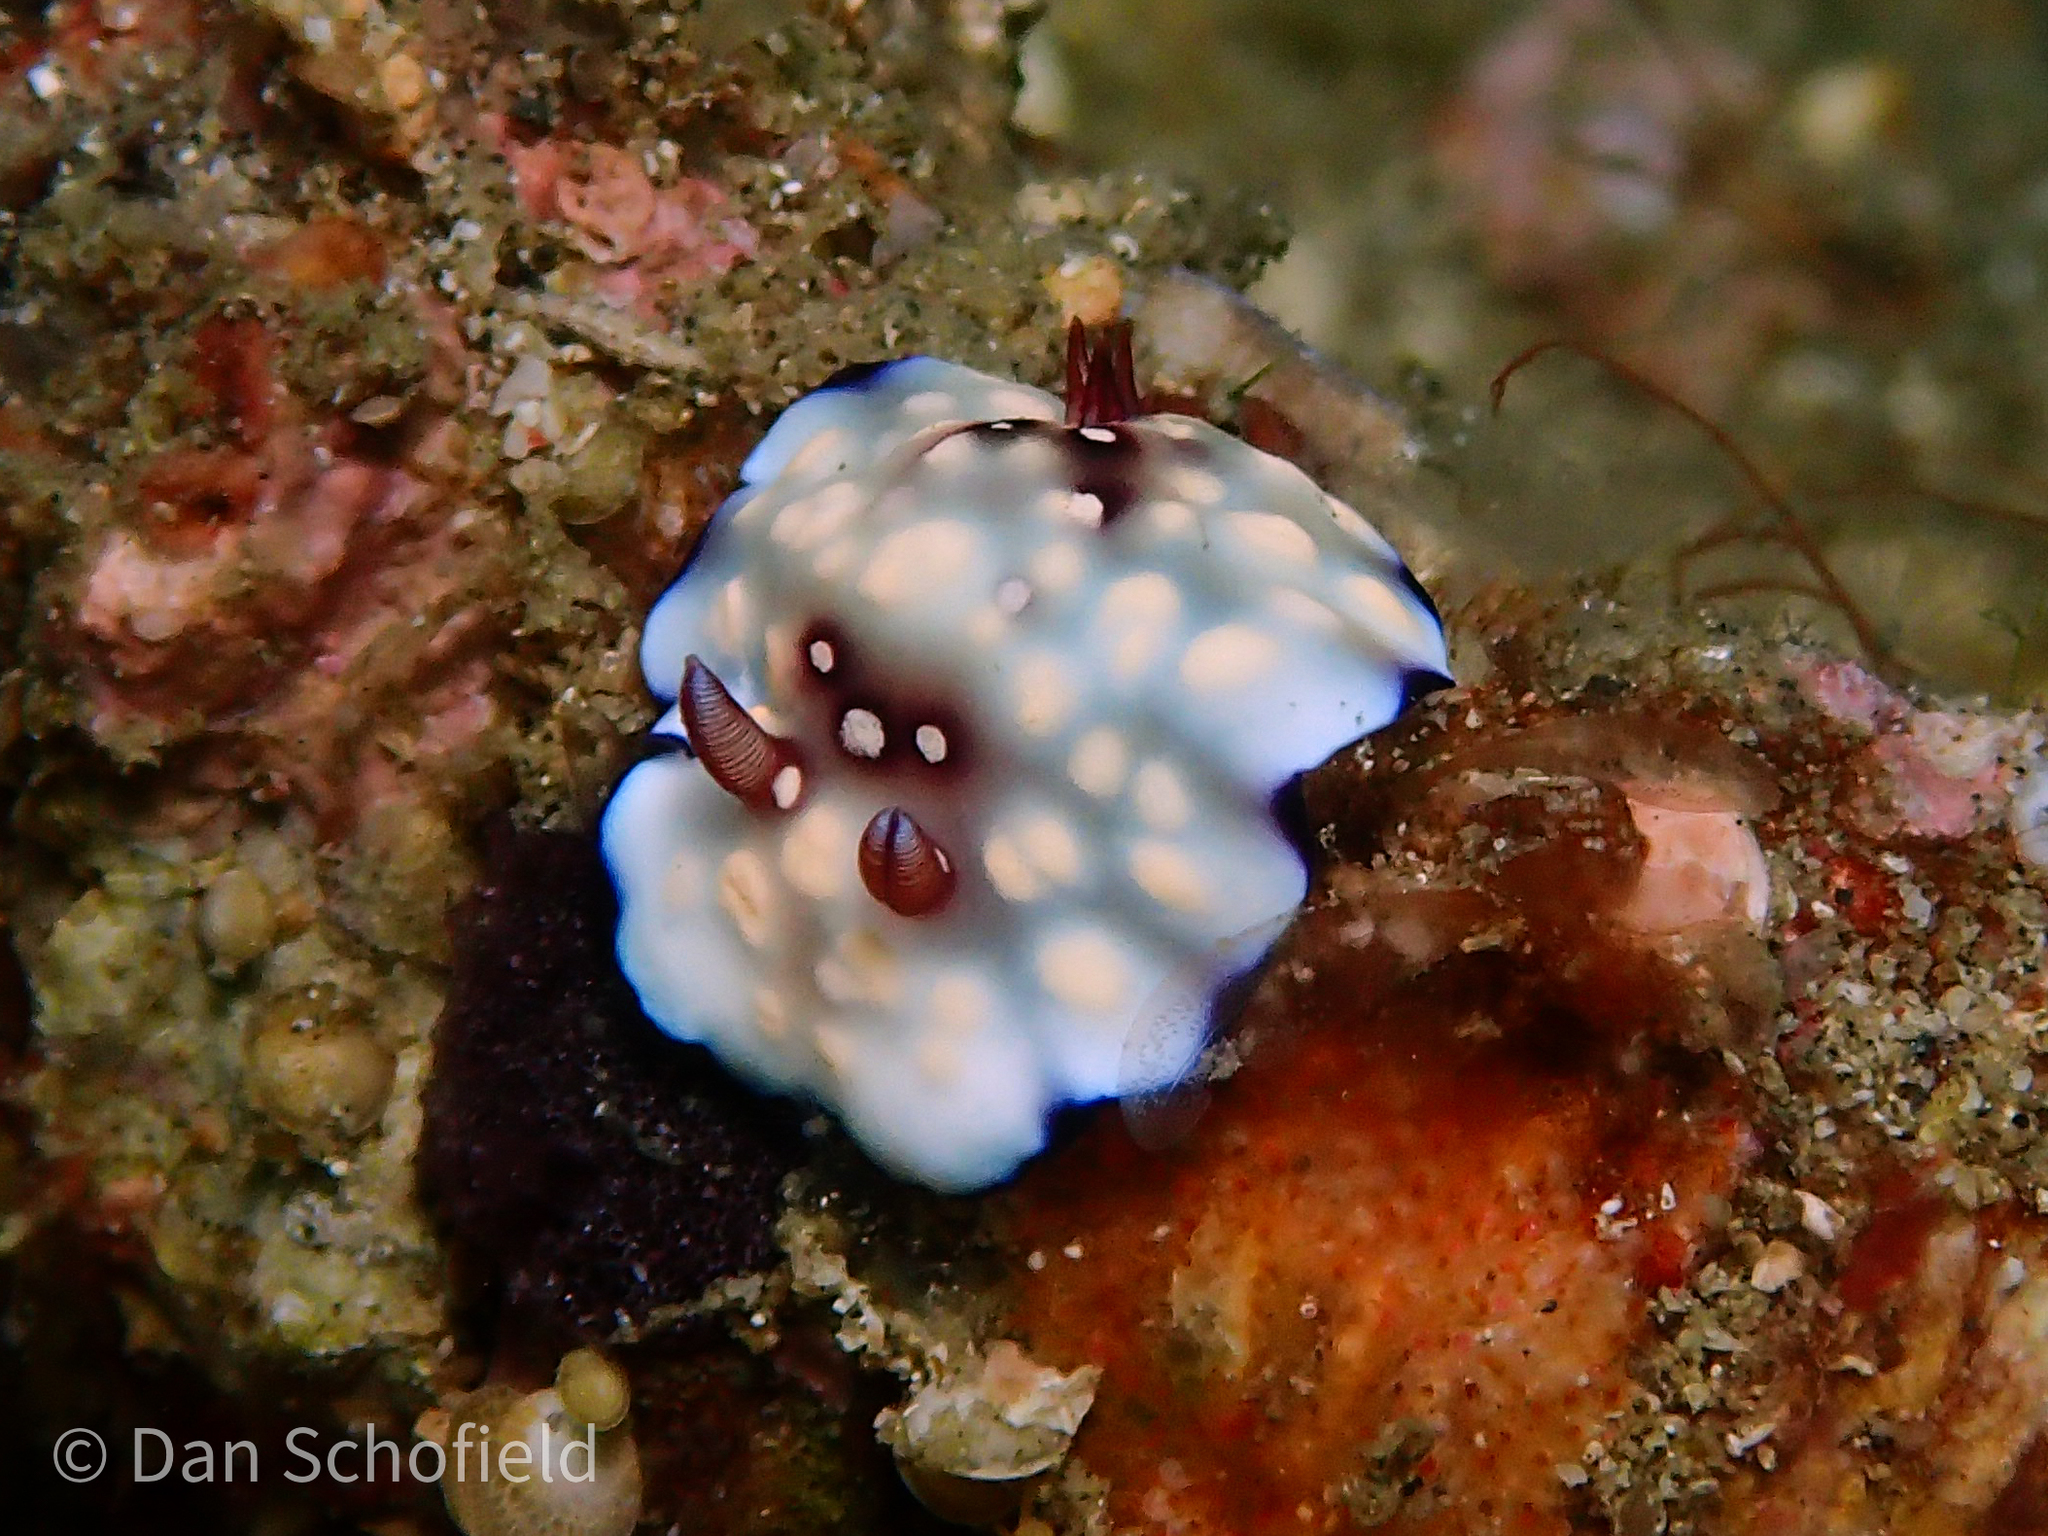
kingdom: Animalia
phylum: Mollusca
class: Gastropoda
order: Nudibranchia
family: Chromodorididae
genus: Goniobranchus
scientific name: Goniobranchus hintuanensis
